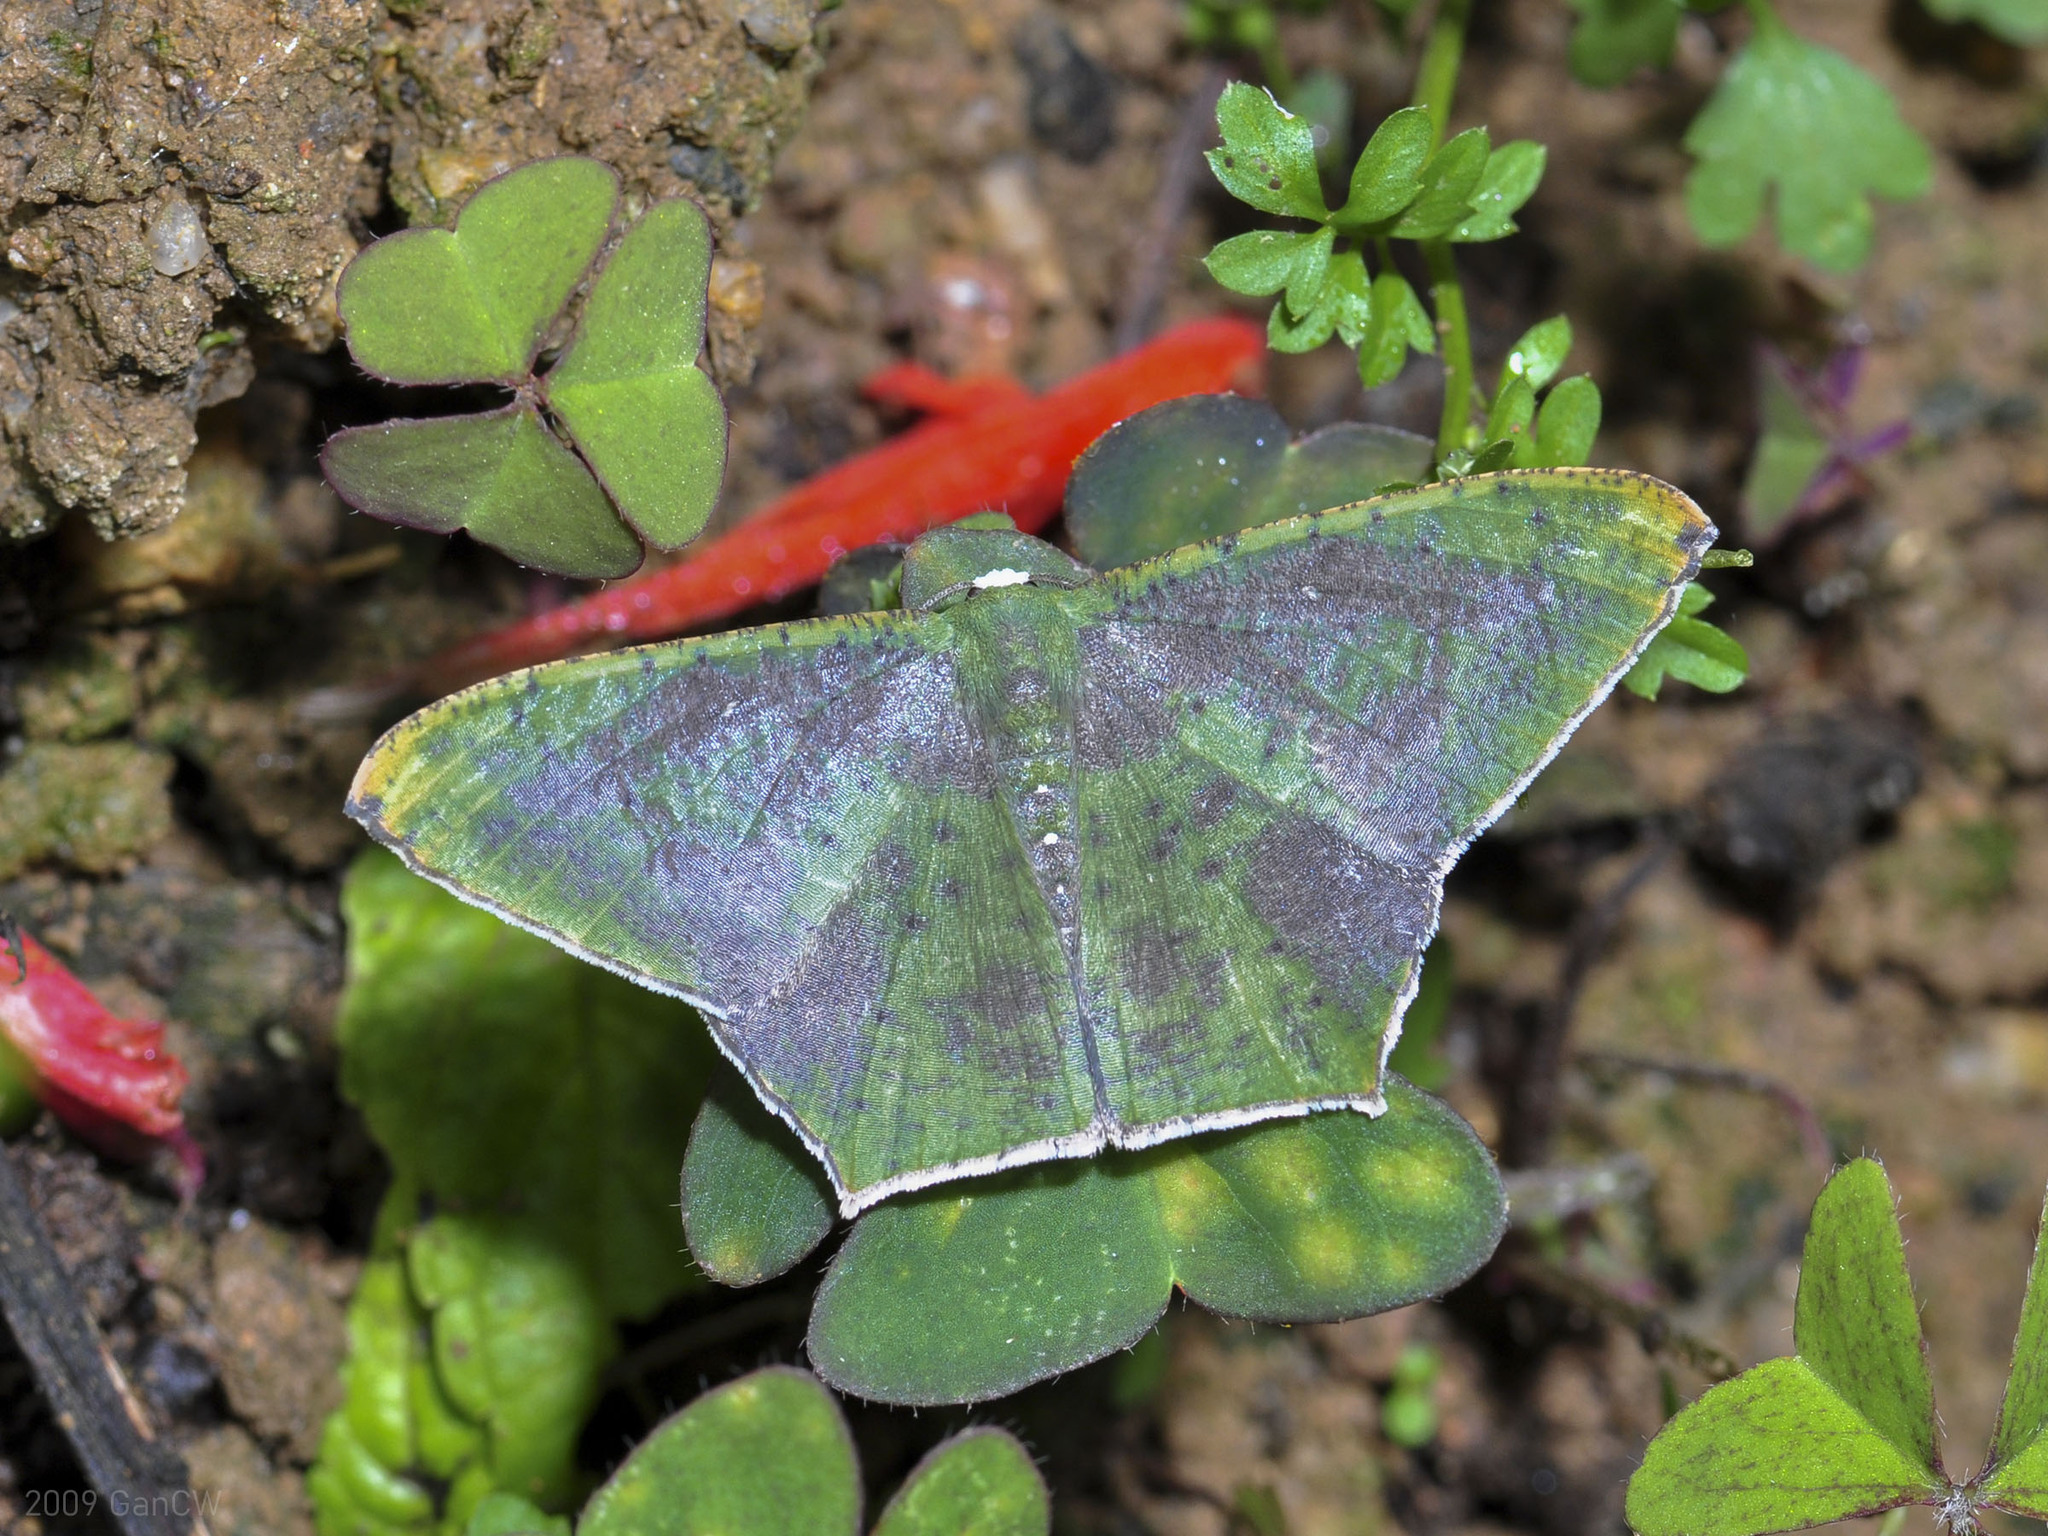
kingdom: Animalia
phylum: Arthropoda
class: Insecta
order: Lepidoptera
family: Geometridae
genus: Chloroglyphica
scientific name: Chloroglyphica devecisi
